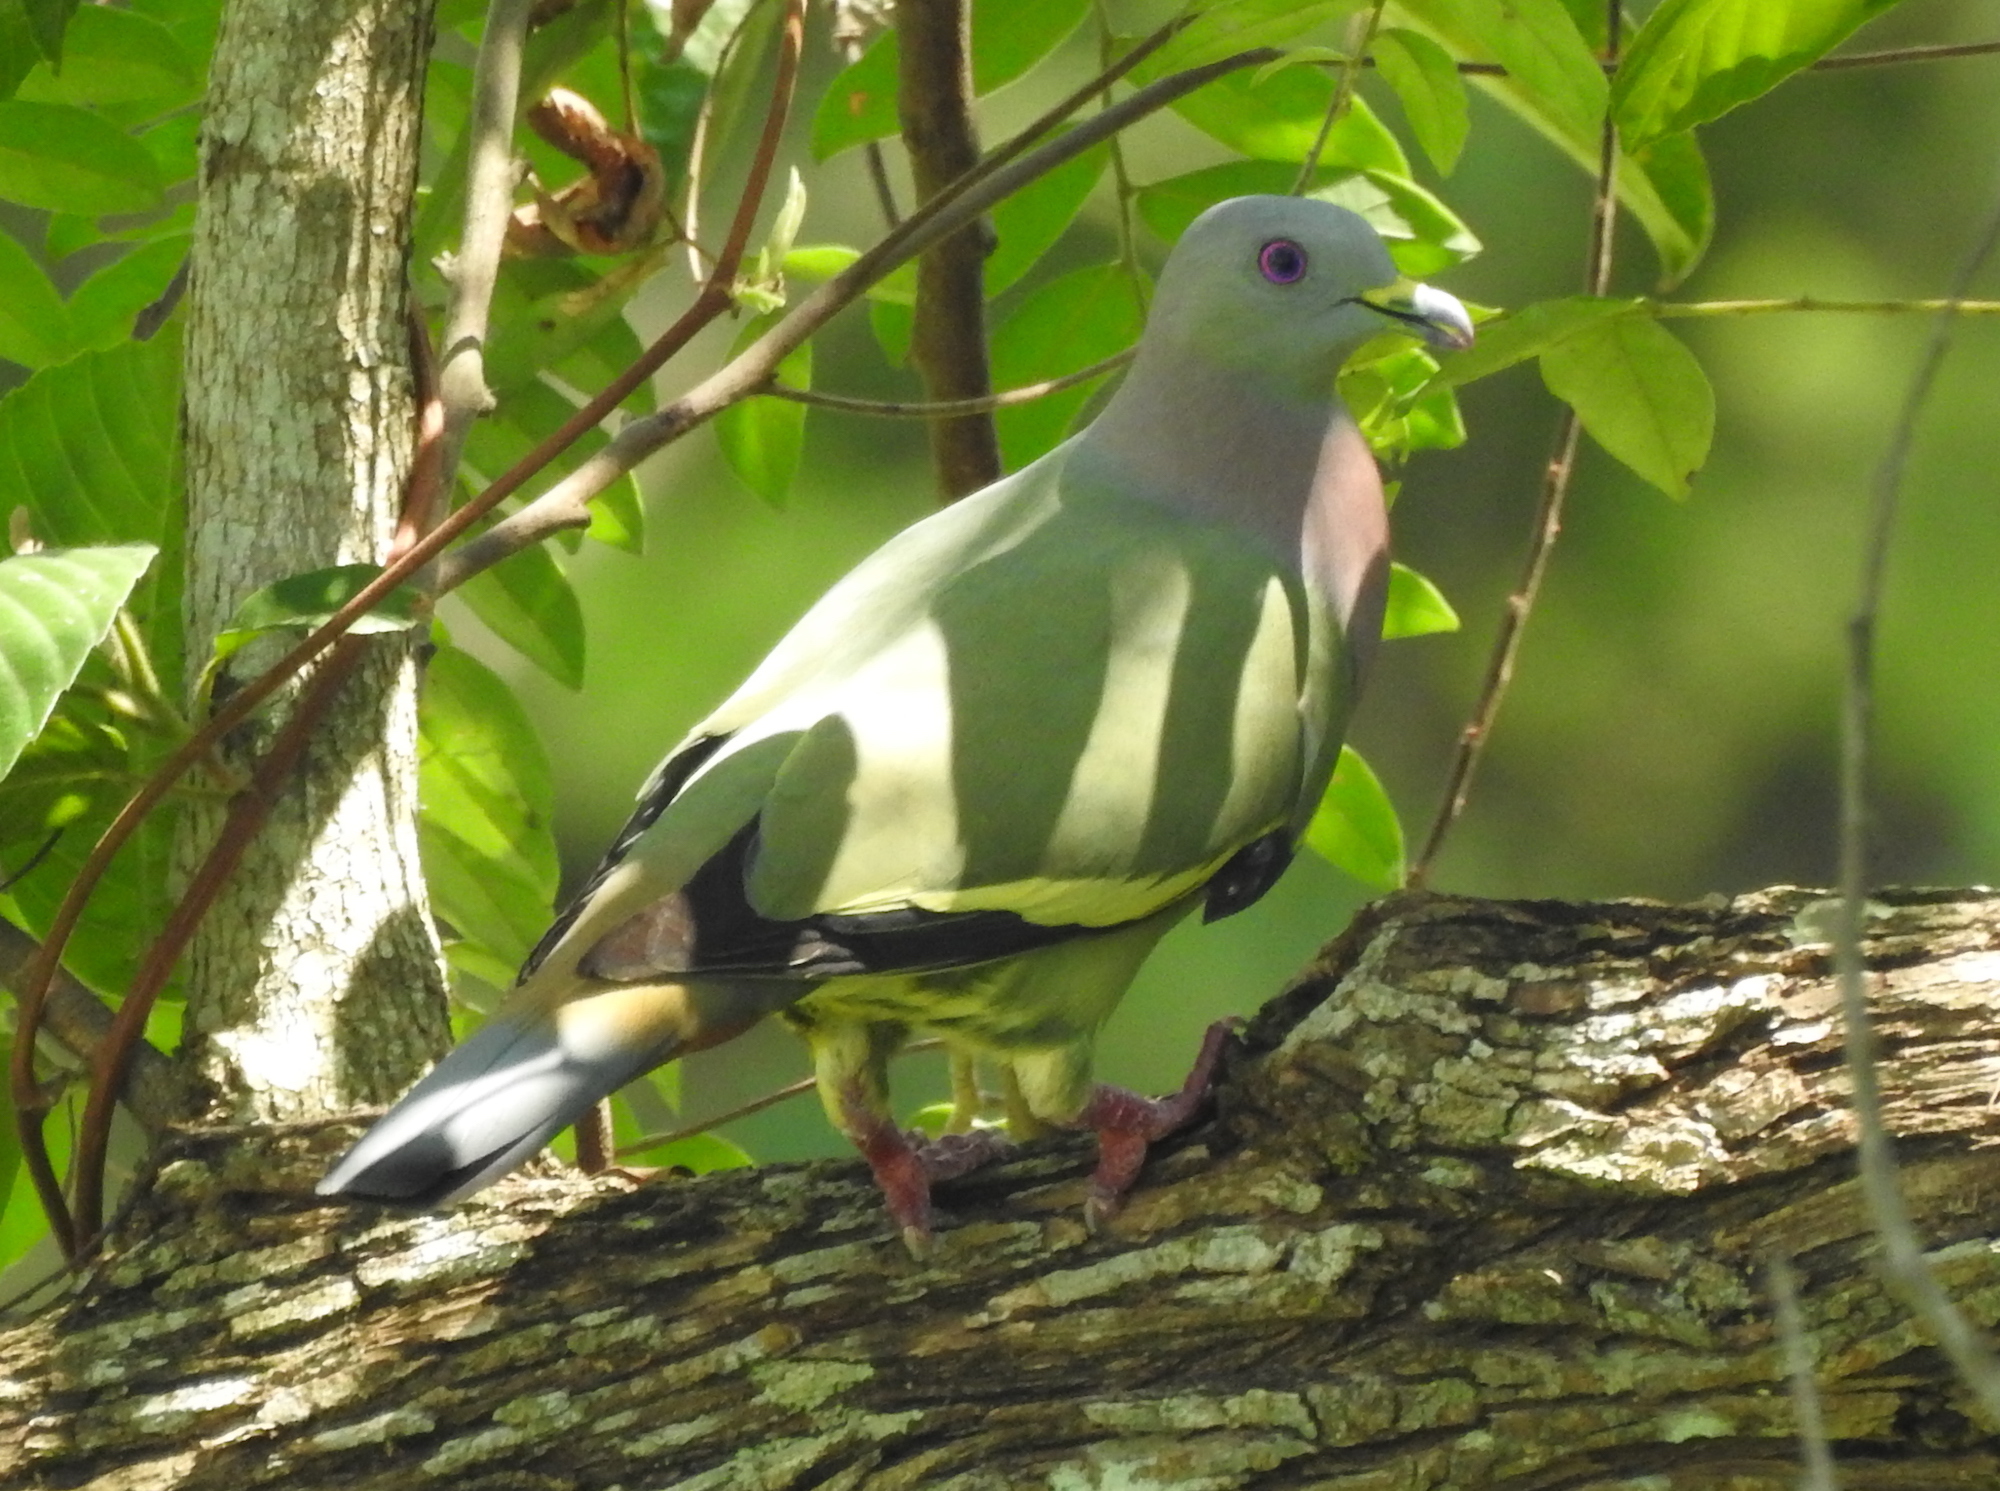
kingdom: Animalia
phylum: Chordata
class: Aves
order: Columbiformes
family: Columbidae
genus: Treron
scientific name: Treron vernans
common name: Pink-necked green pigeon
